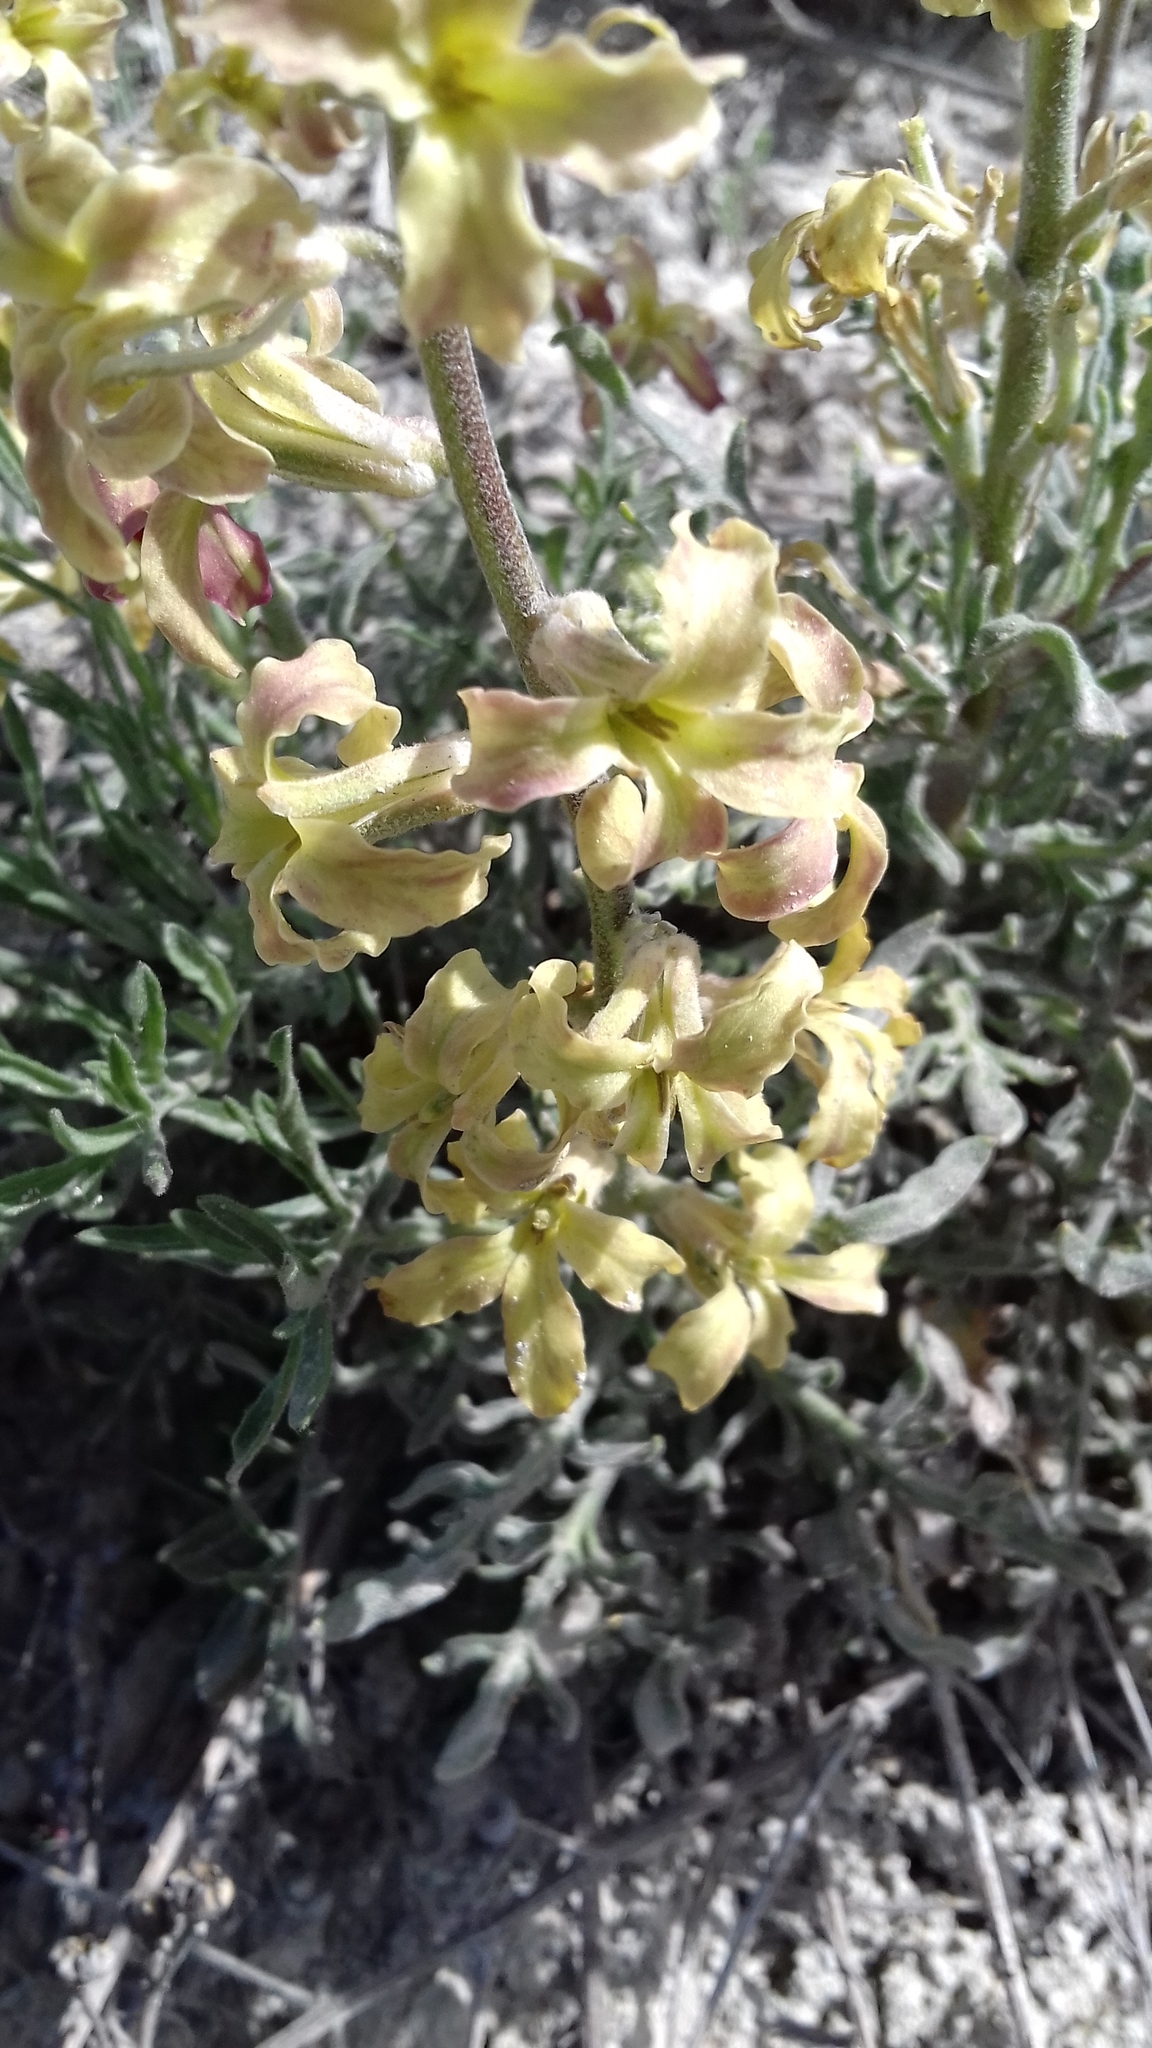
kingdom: Plantae
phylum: Tracheophyta
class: Magnoliopsida
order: Brassicales
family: Brassicaceae
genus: Matthiola
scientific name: Matthiola odoratissima
